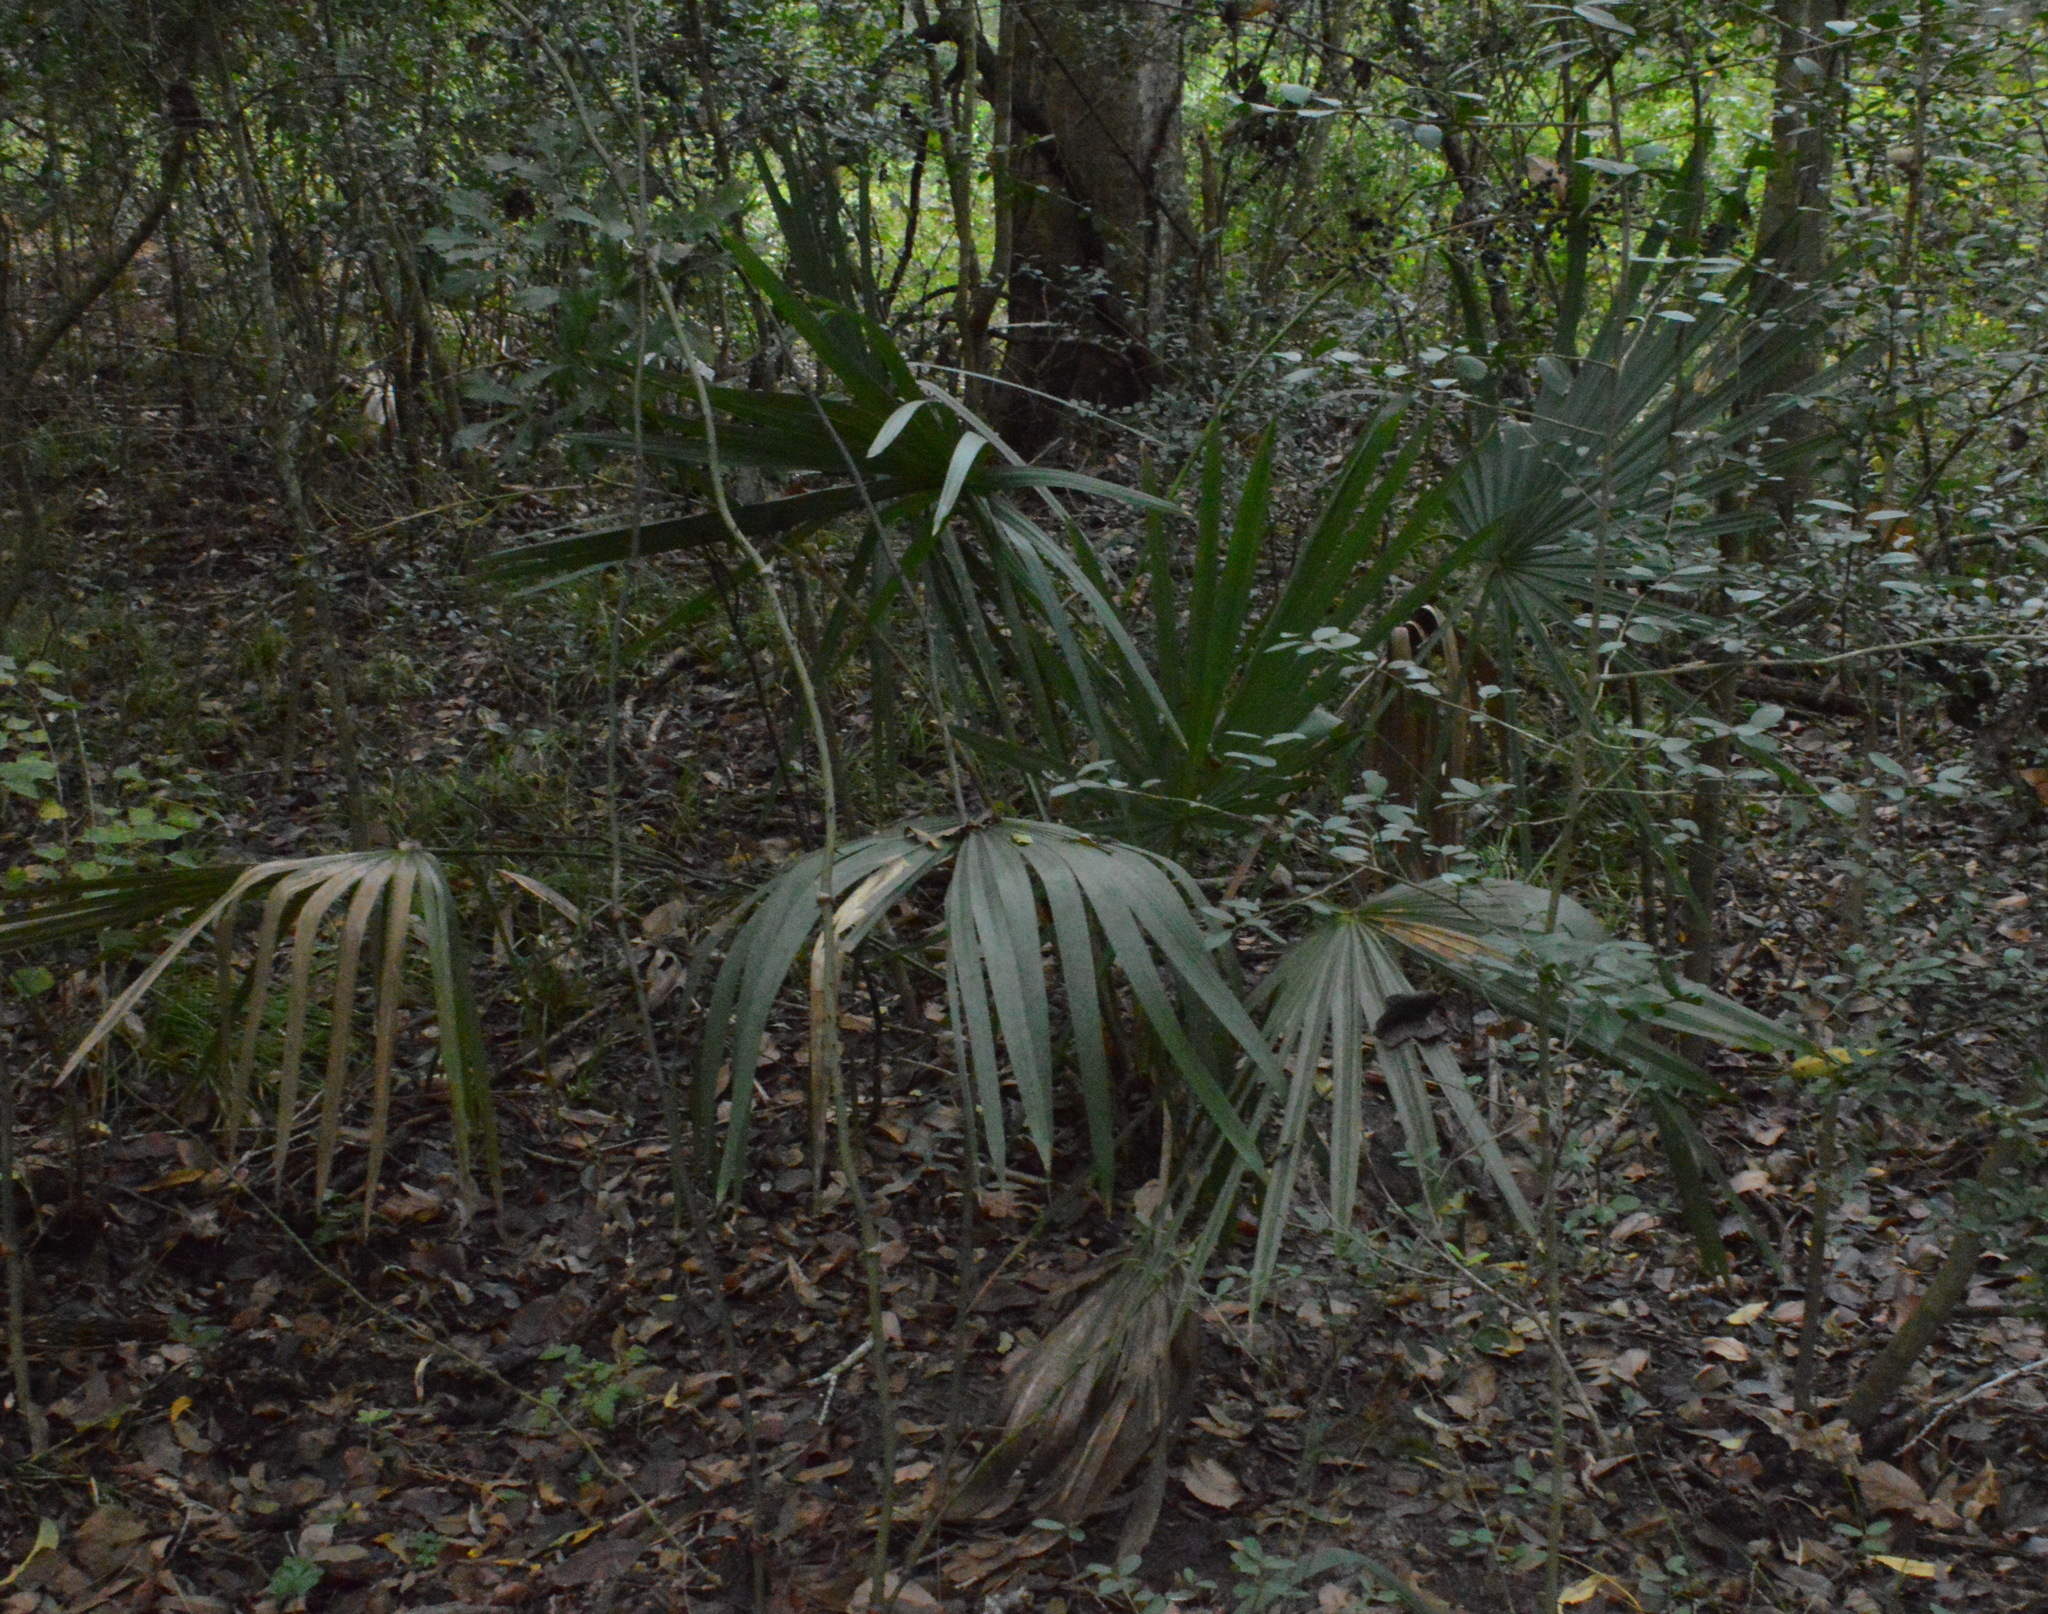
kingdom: Plantae
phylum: Tracheophyta
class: Liliopsida
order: Arecales
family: Arecaceae
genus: Sabal
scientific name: Sabal minor
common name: Dwarf palmetto
